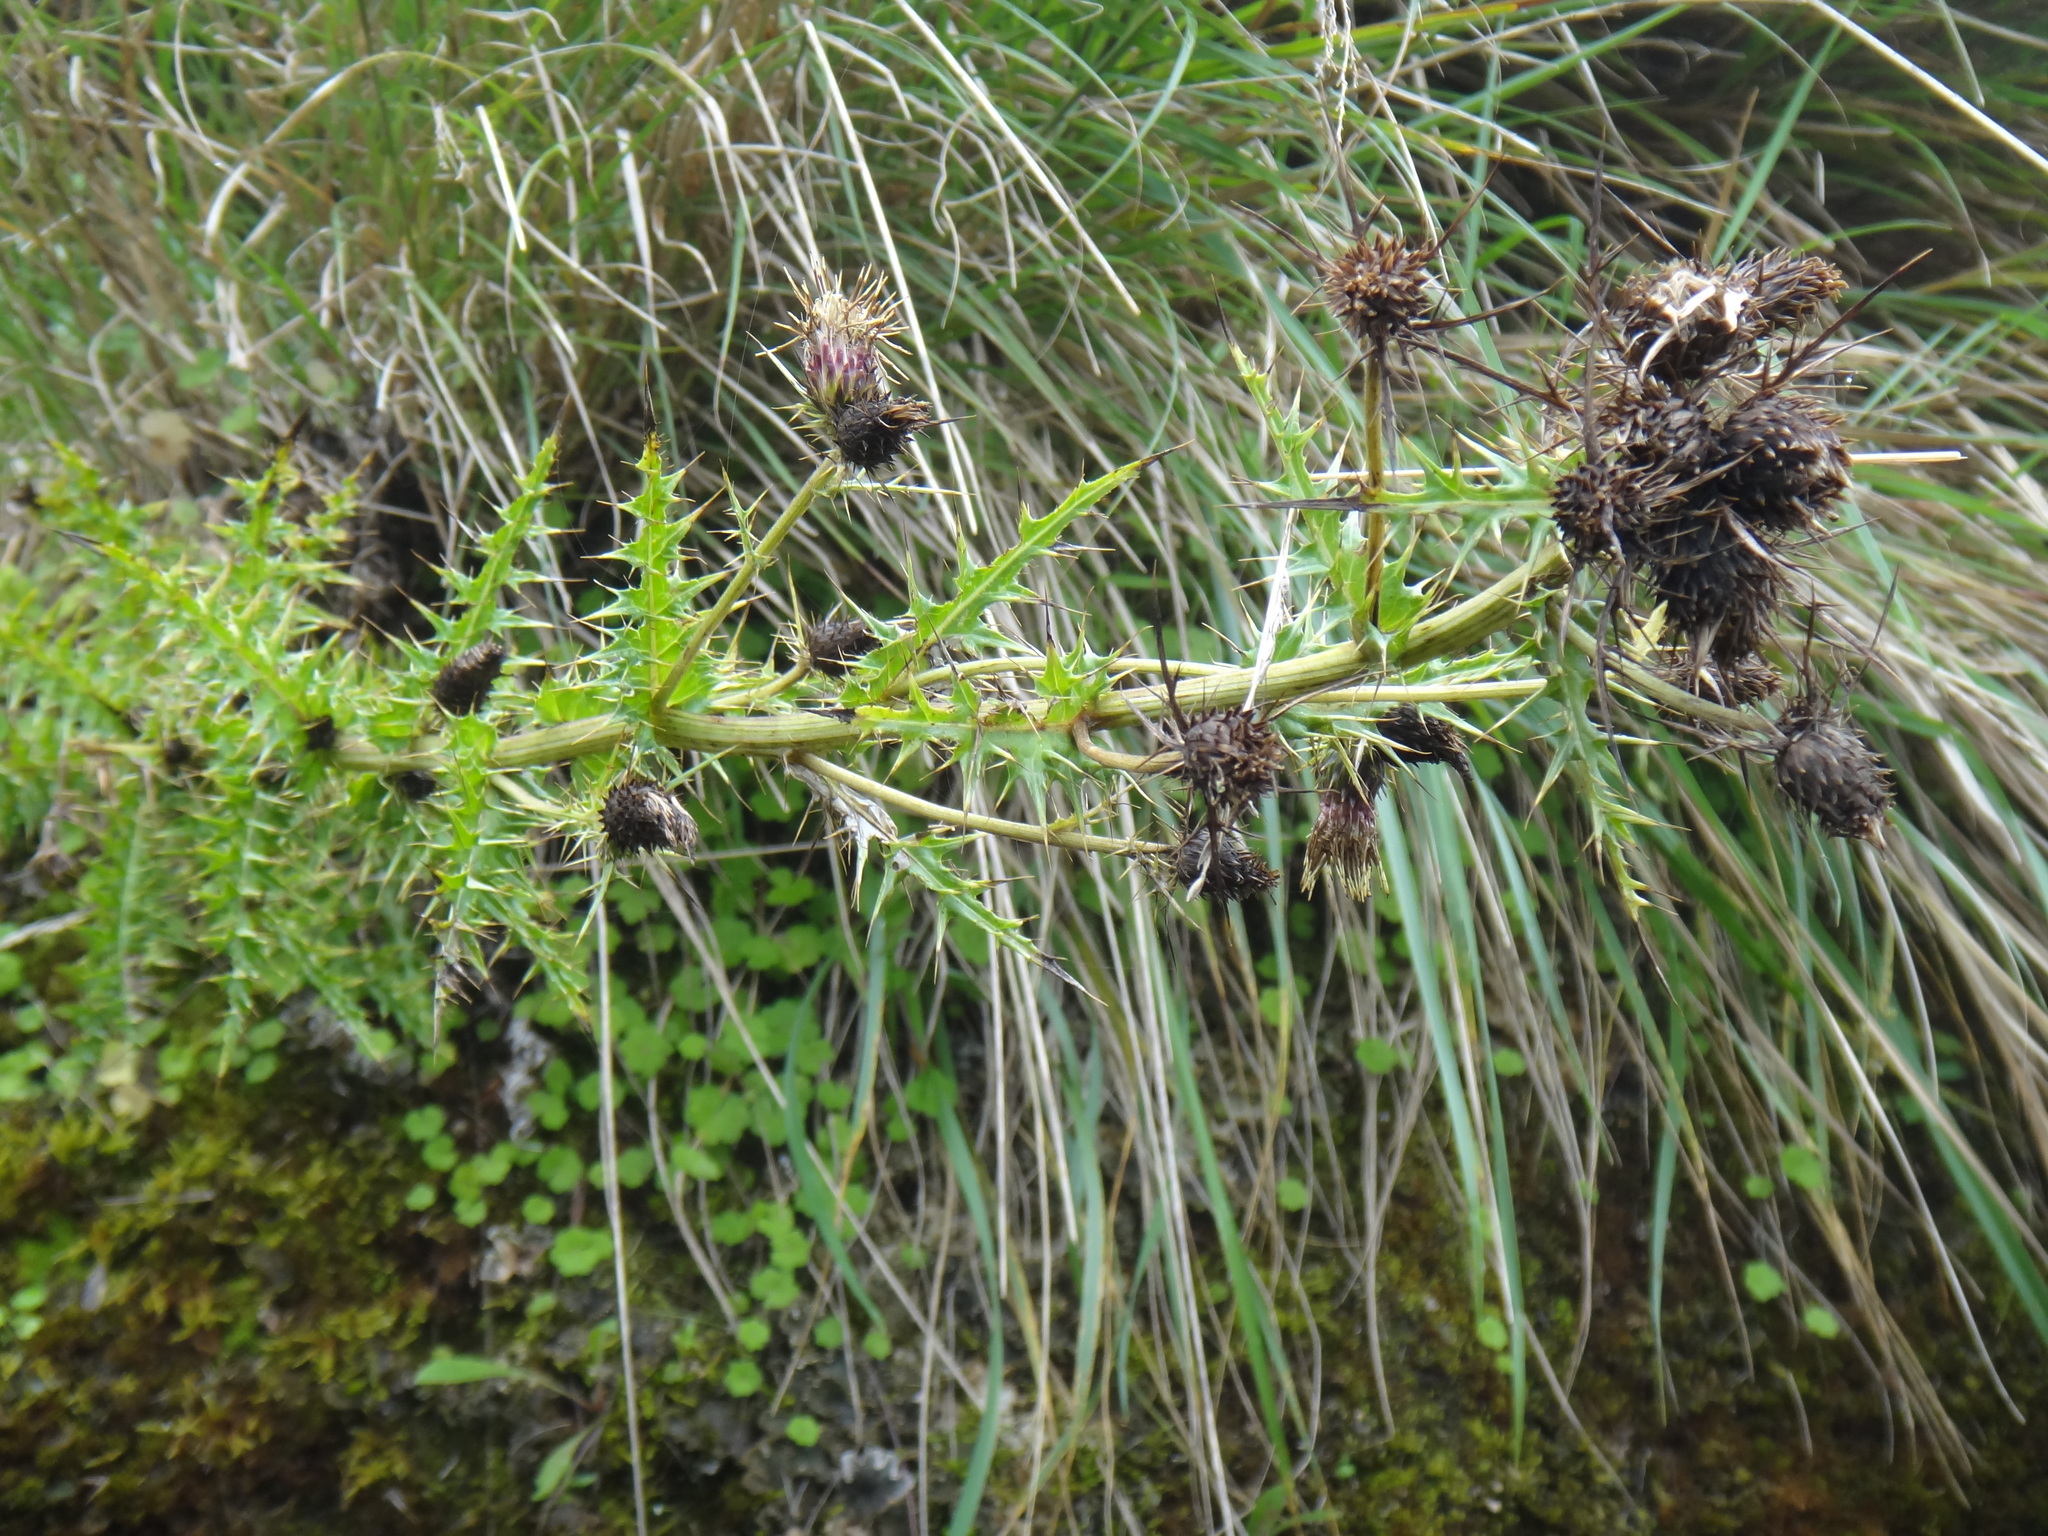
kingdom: Plantae
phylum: Tracheophyta
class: Magnoliopsida
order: Asterales
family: Asteraceae
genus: Cirsium
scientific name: Cirsium arisanense
